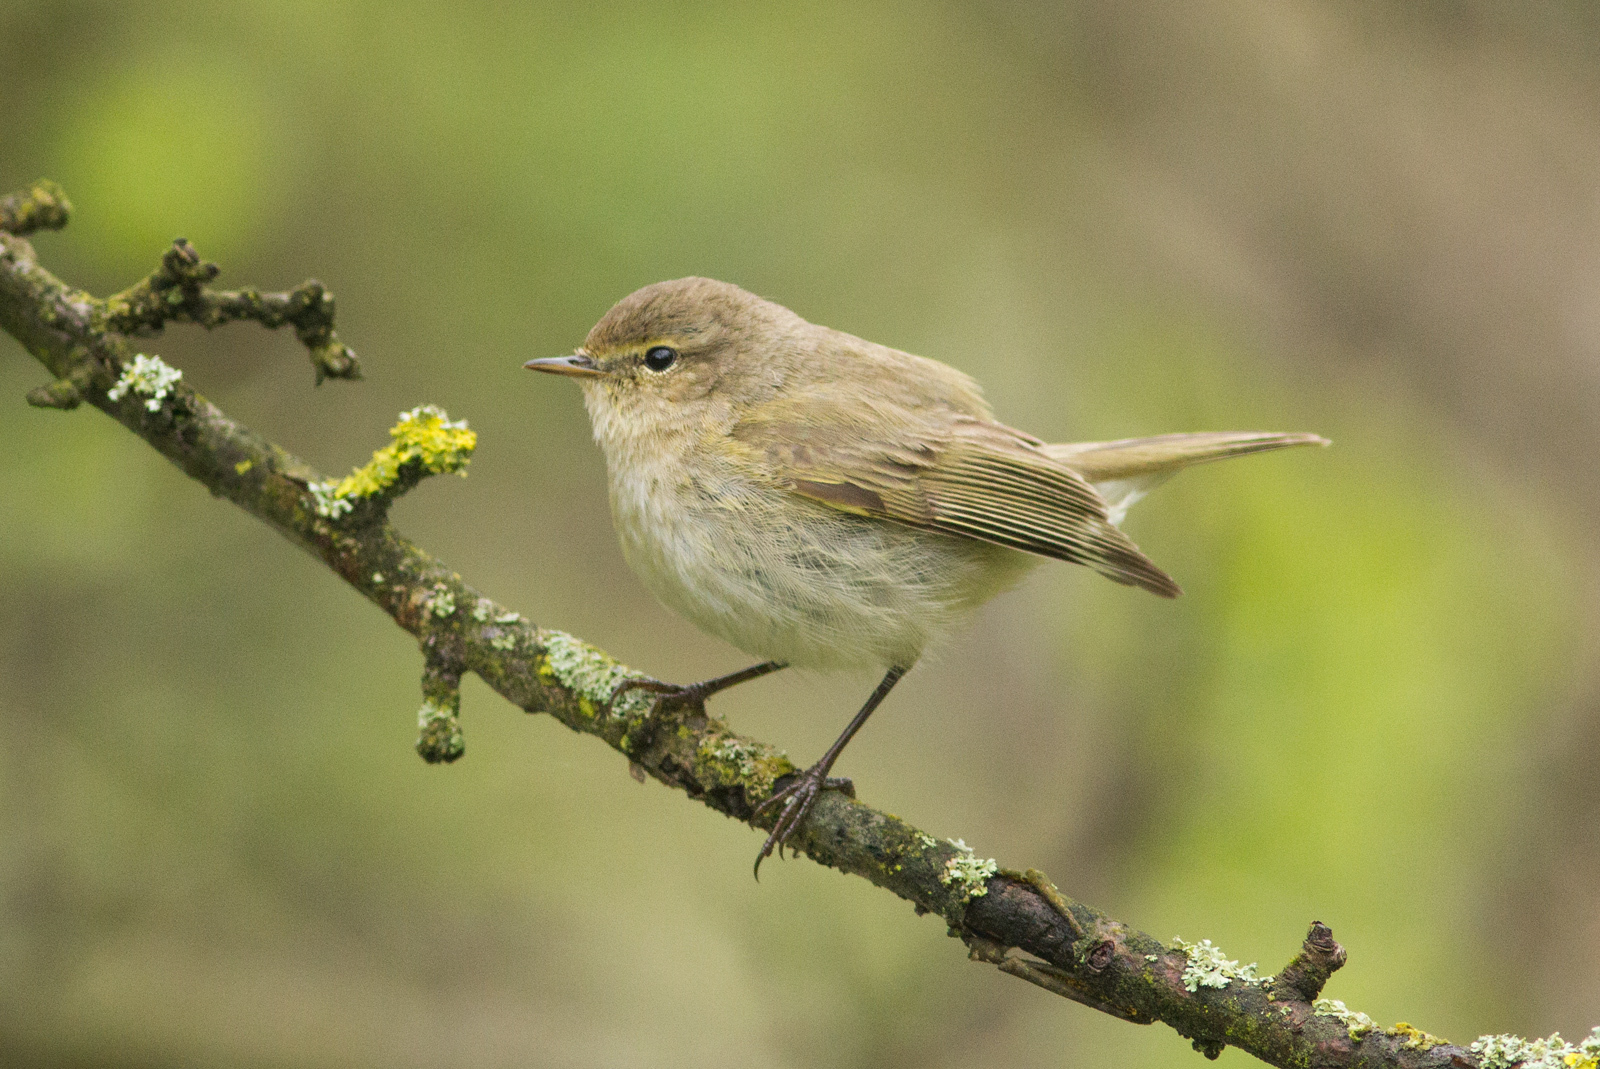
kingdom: Animalia
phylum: Chordata
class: Aves
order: Passeriformes
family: Phylloscopidae
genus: Phylloscopus
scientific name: Phylloscopus collybita
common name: Common chiffchaff
